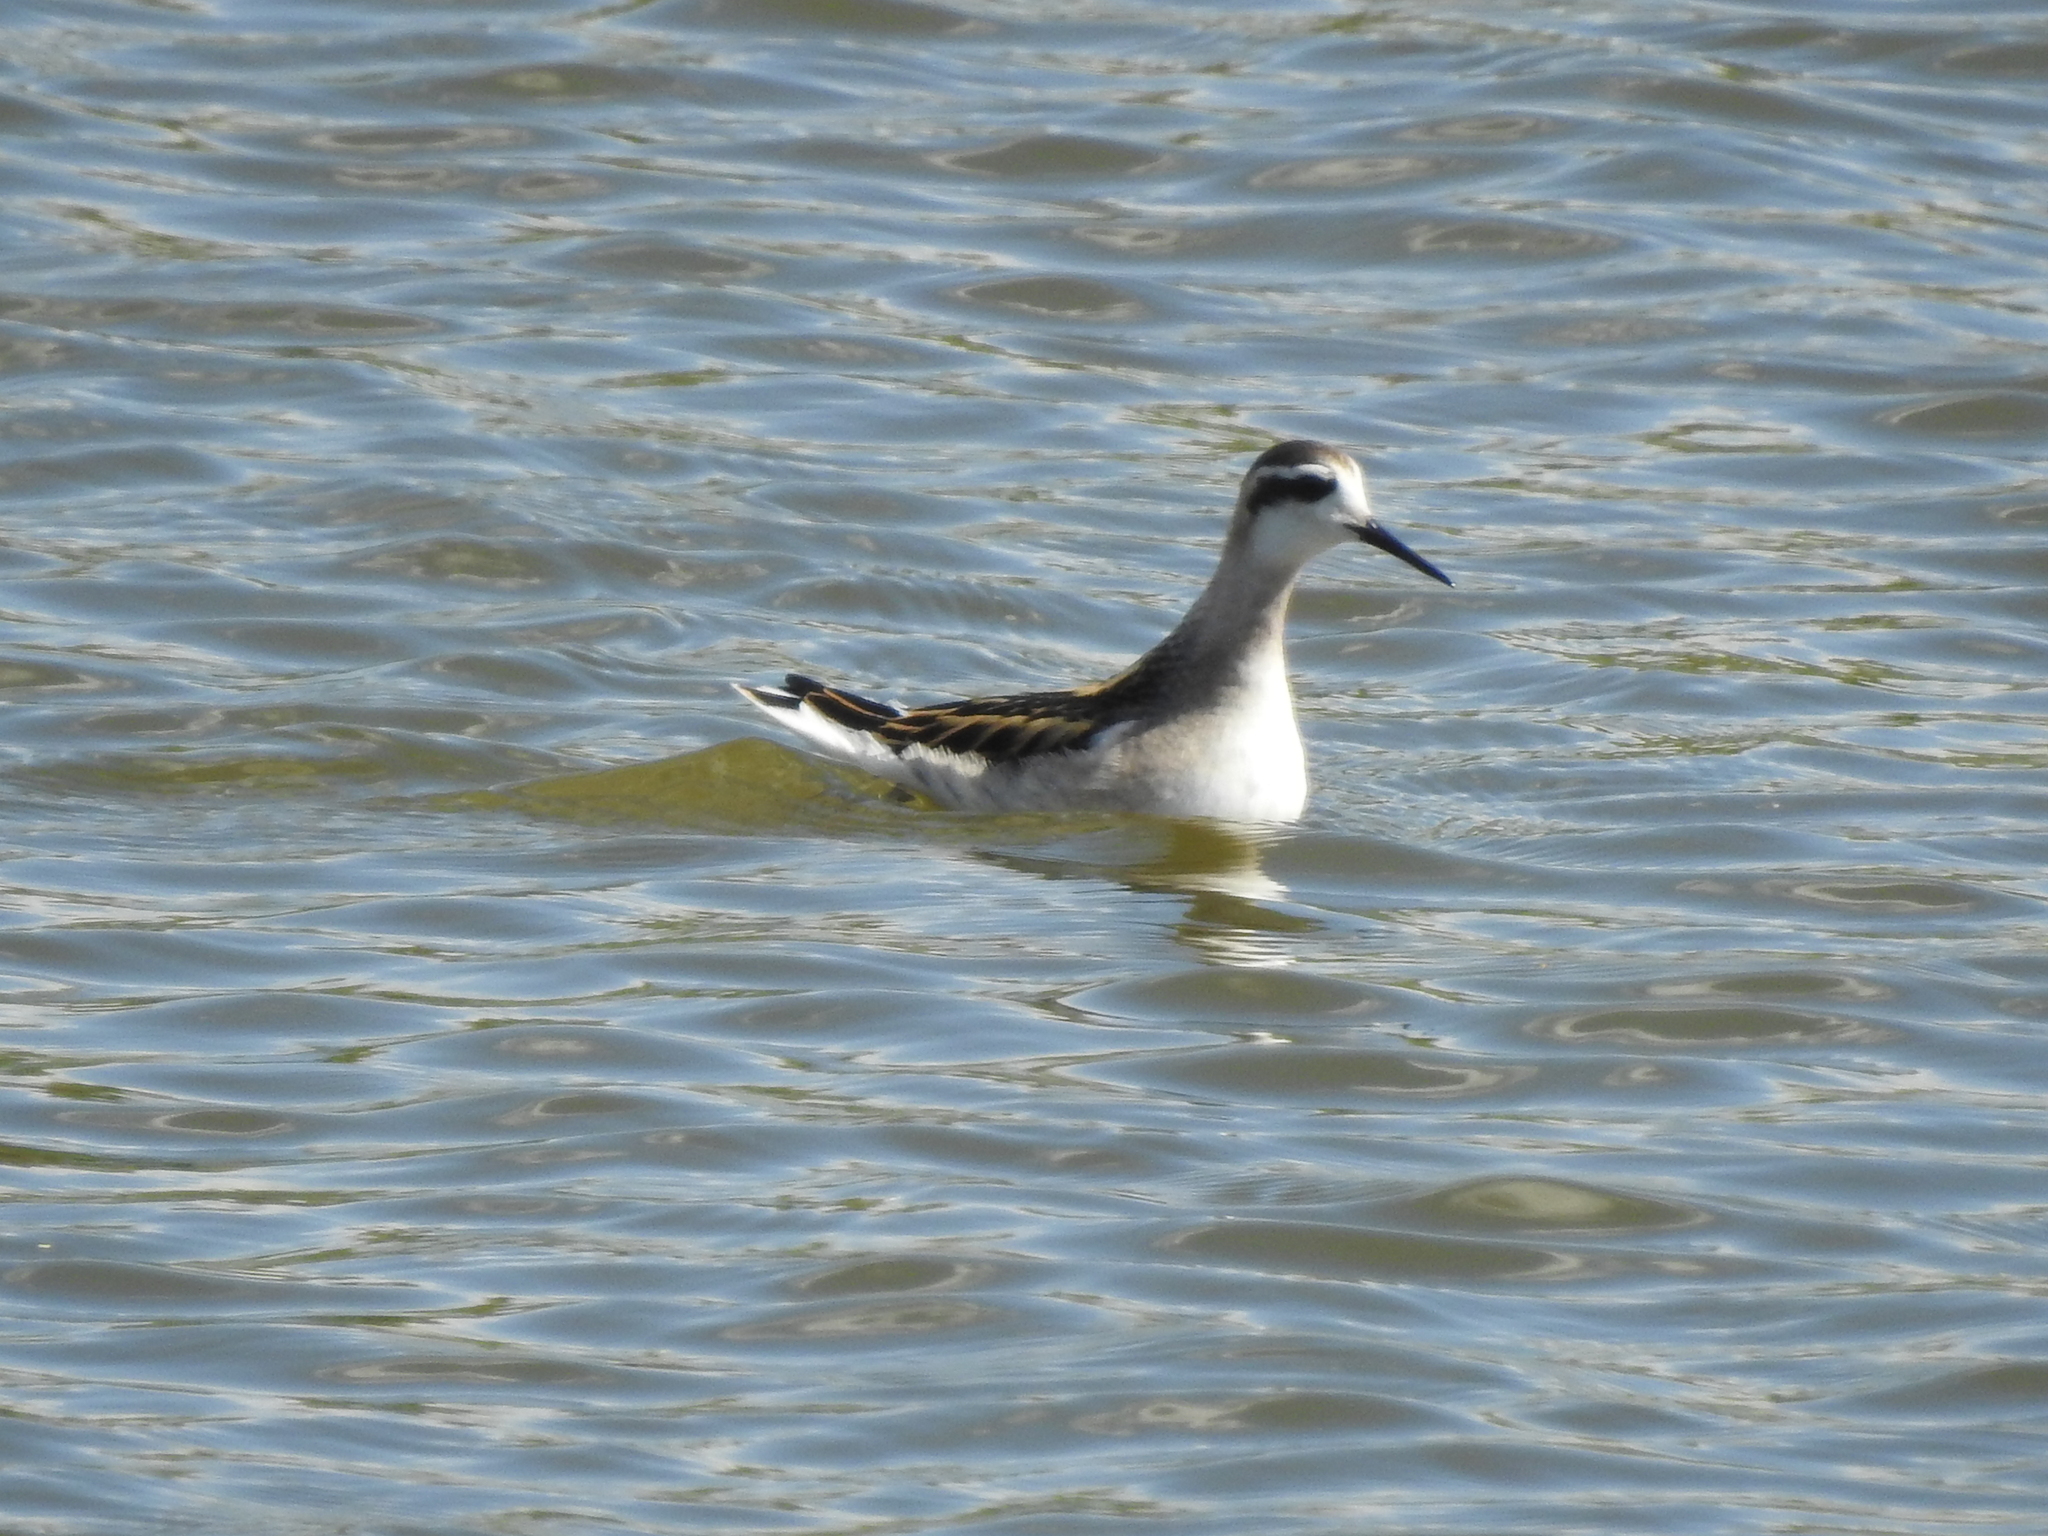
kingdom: Animalia
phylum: Chordata
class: Aves
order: Charadriiformes
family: Scolopacidae
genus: Phalaropus
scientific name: Phalaropus lobatus
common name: Red-necked phalarope
